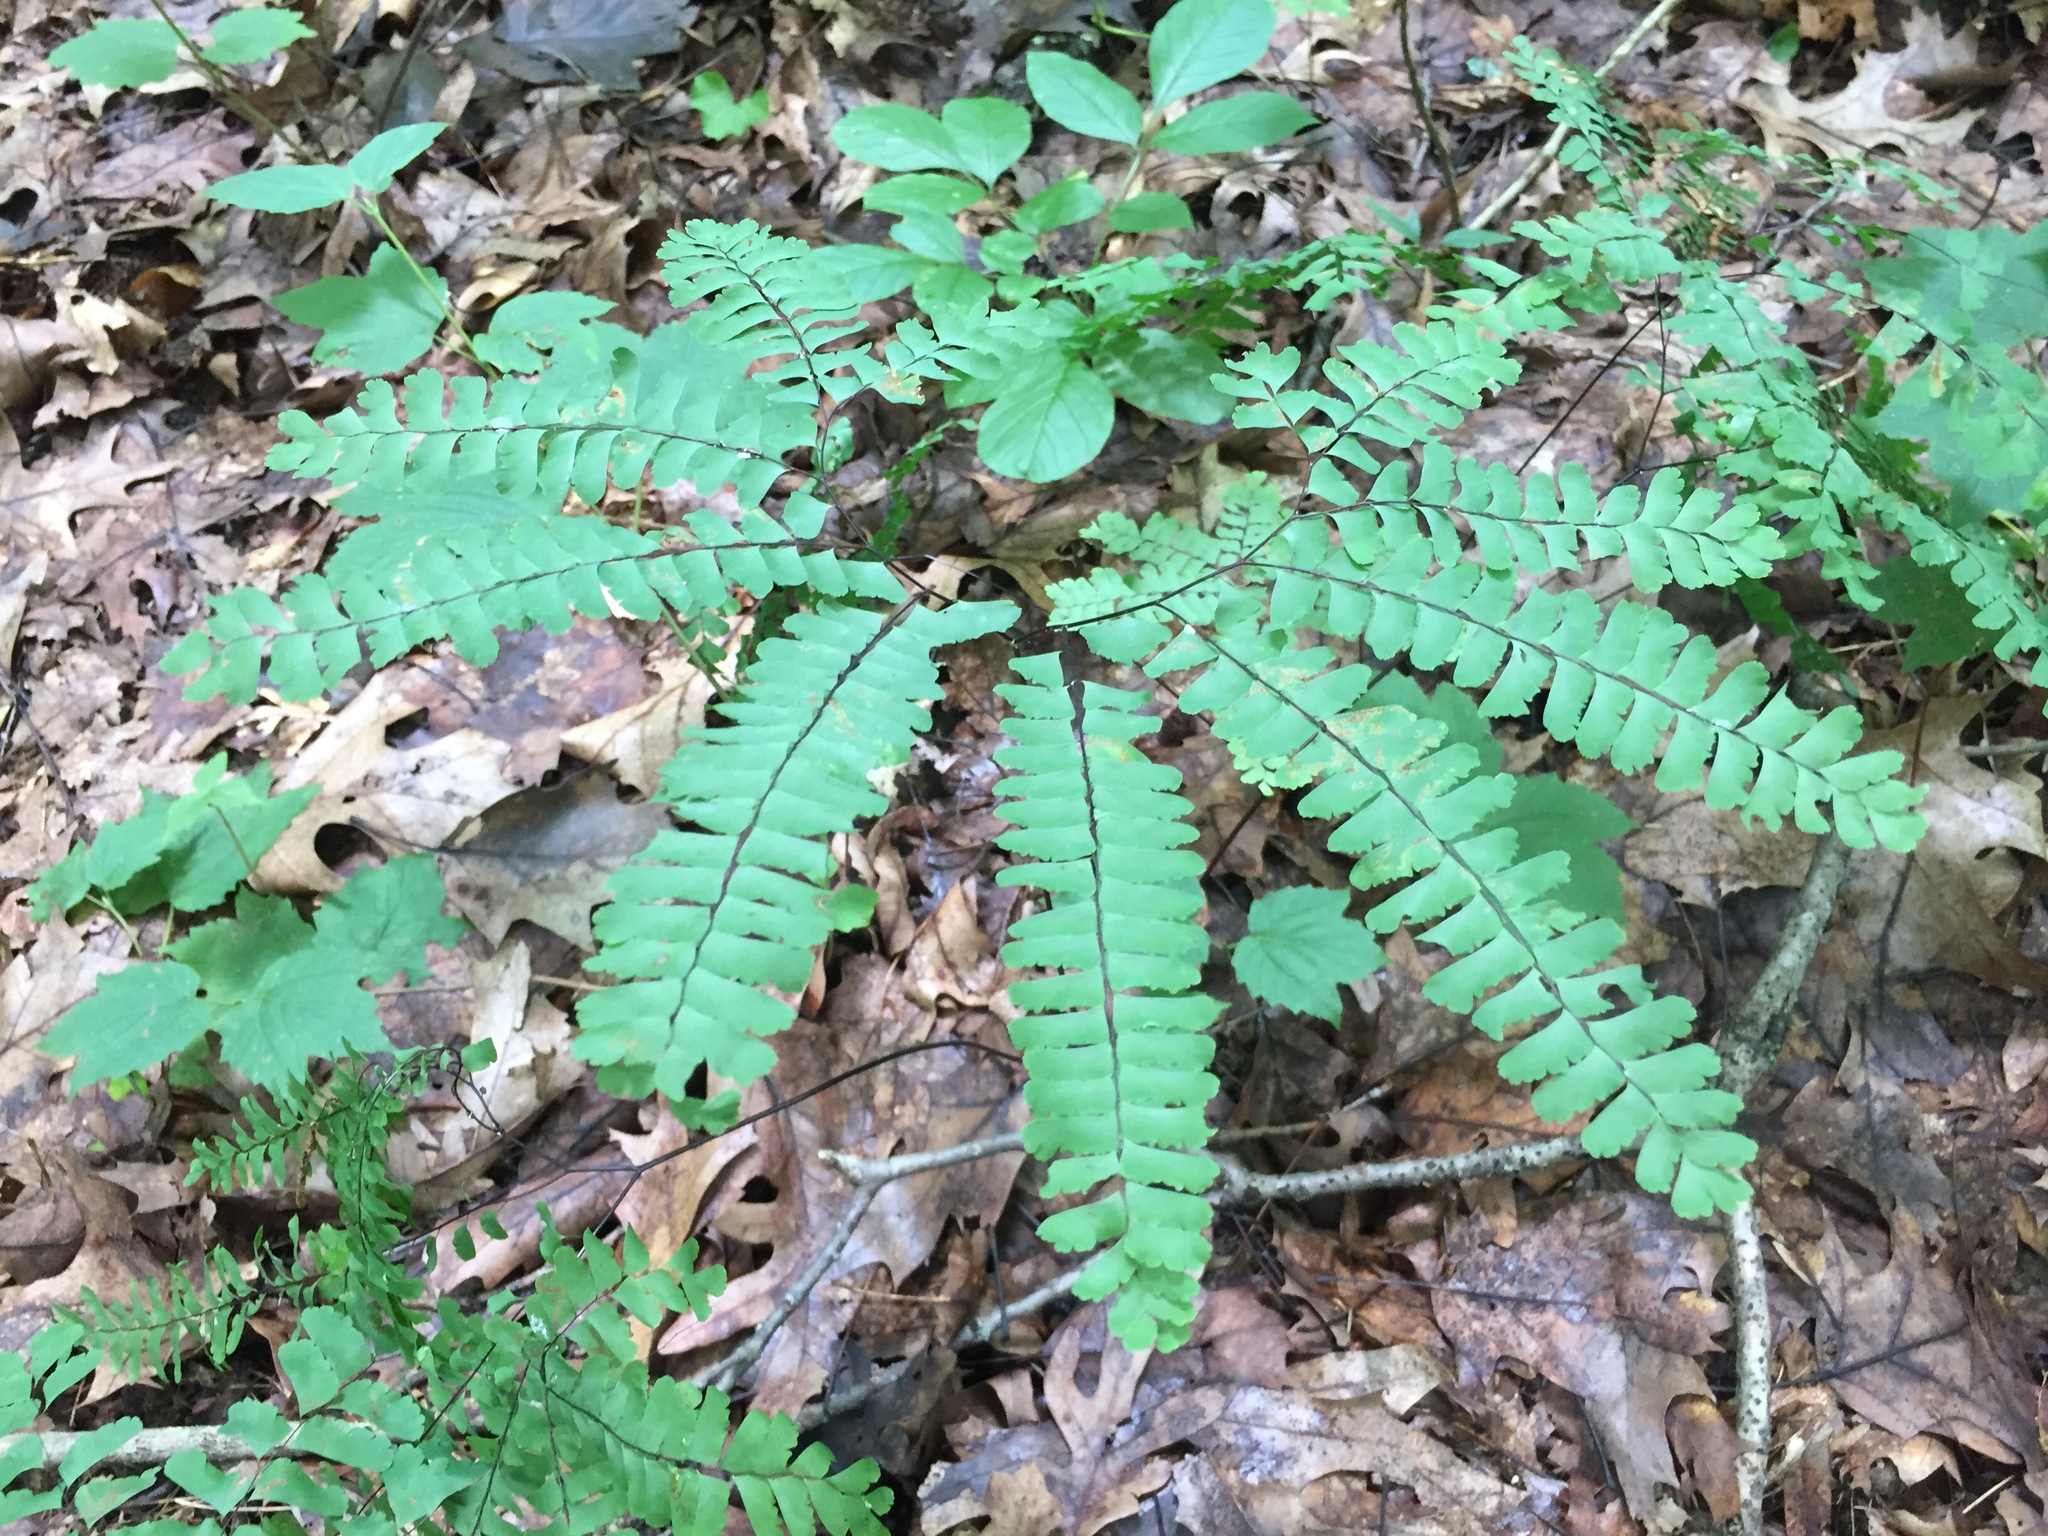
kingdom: Plantae
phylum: Tracheophyta
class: Polypodiopsida
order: Polypodiales
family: Pteridaceae
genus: Adiantum
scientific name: Adiantum pedatum
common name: Five-finger fern
